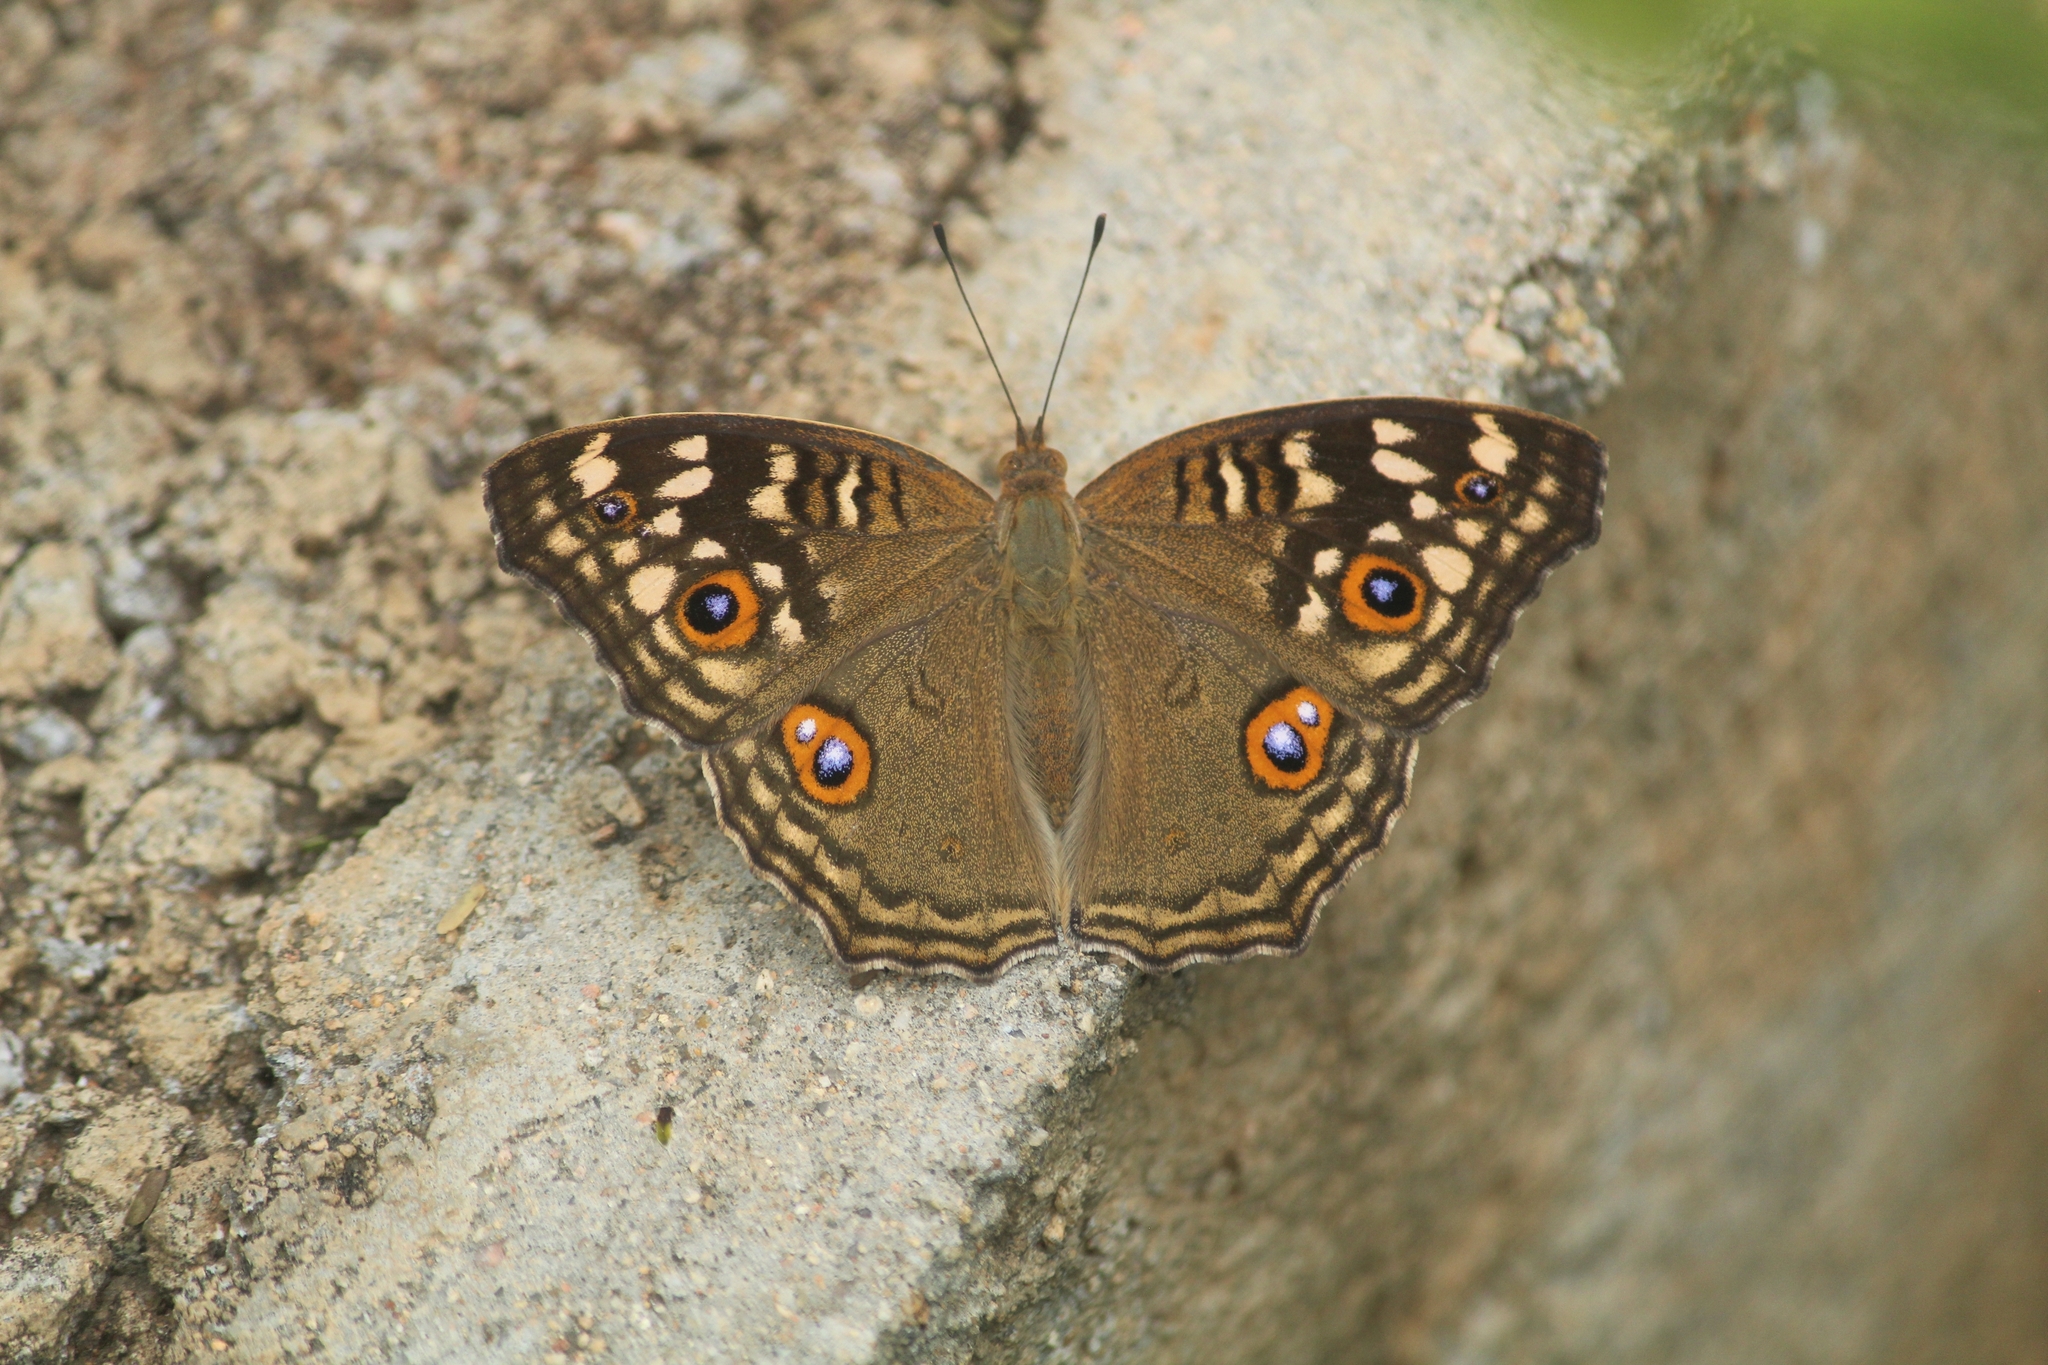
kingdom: Animalia
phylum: Arthropoda
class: Insecta
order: Lepidoptera
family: Nymphalidae
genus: Junonia
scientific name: Junonia lemonias
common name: Lemon pansy
